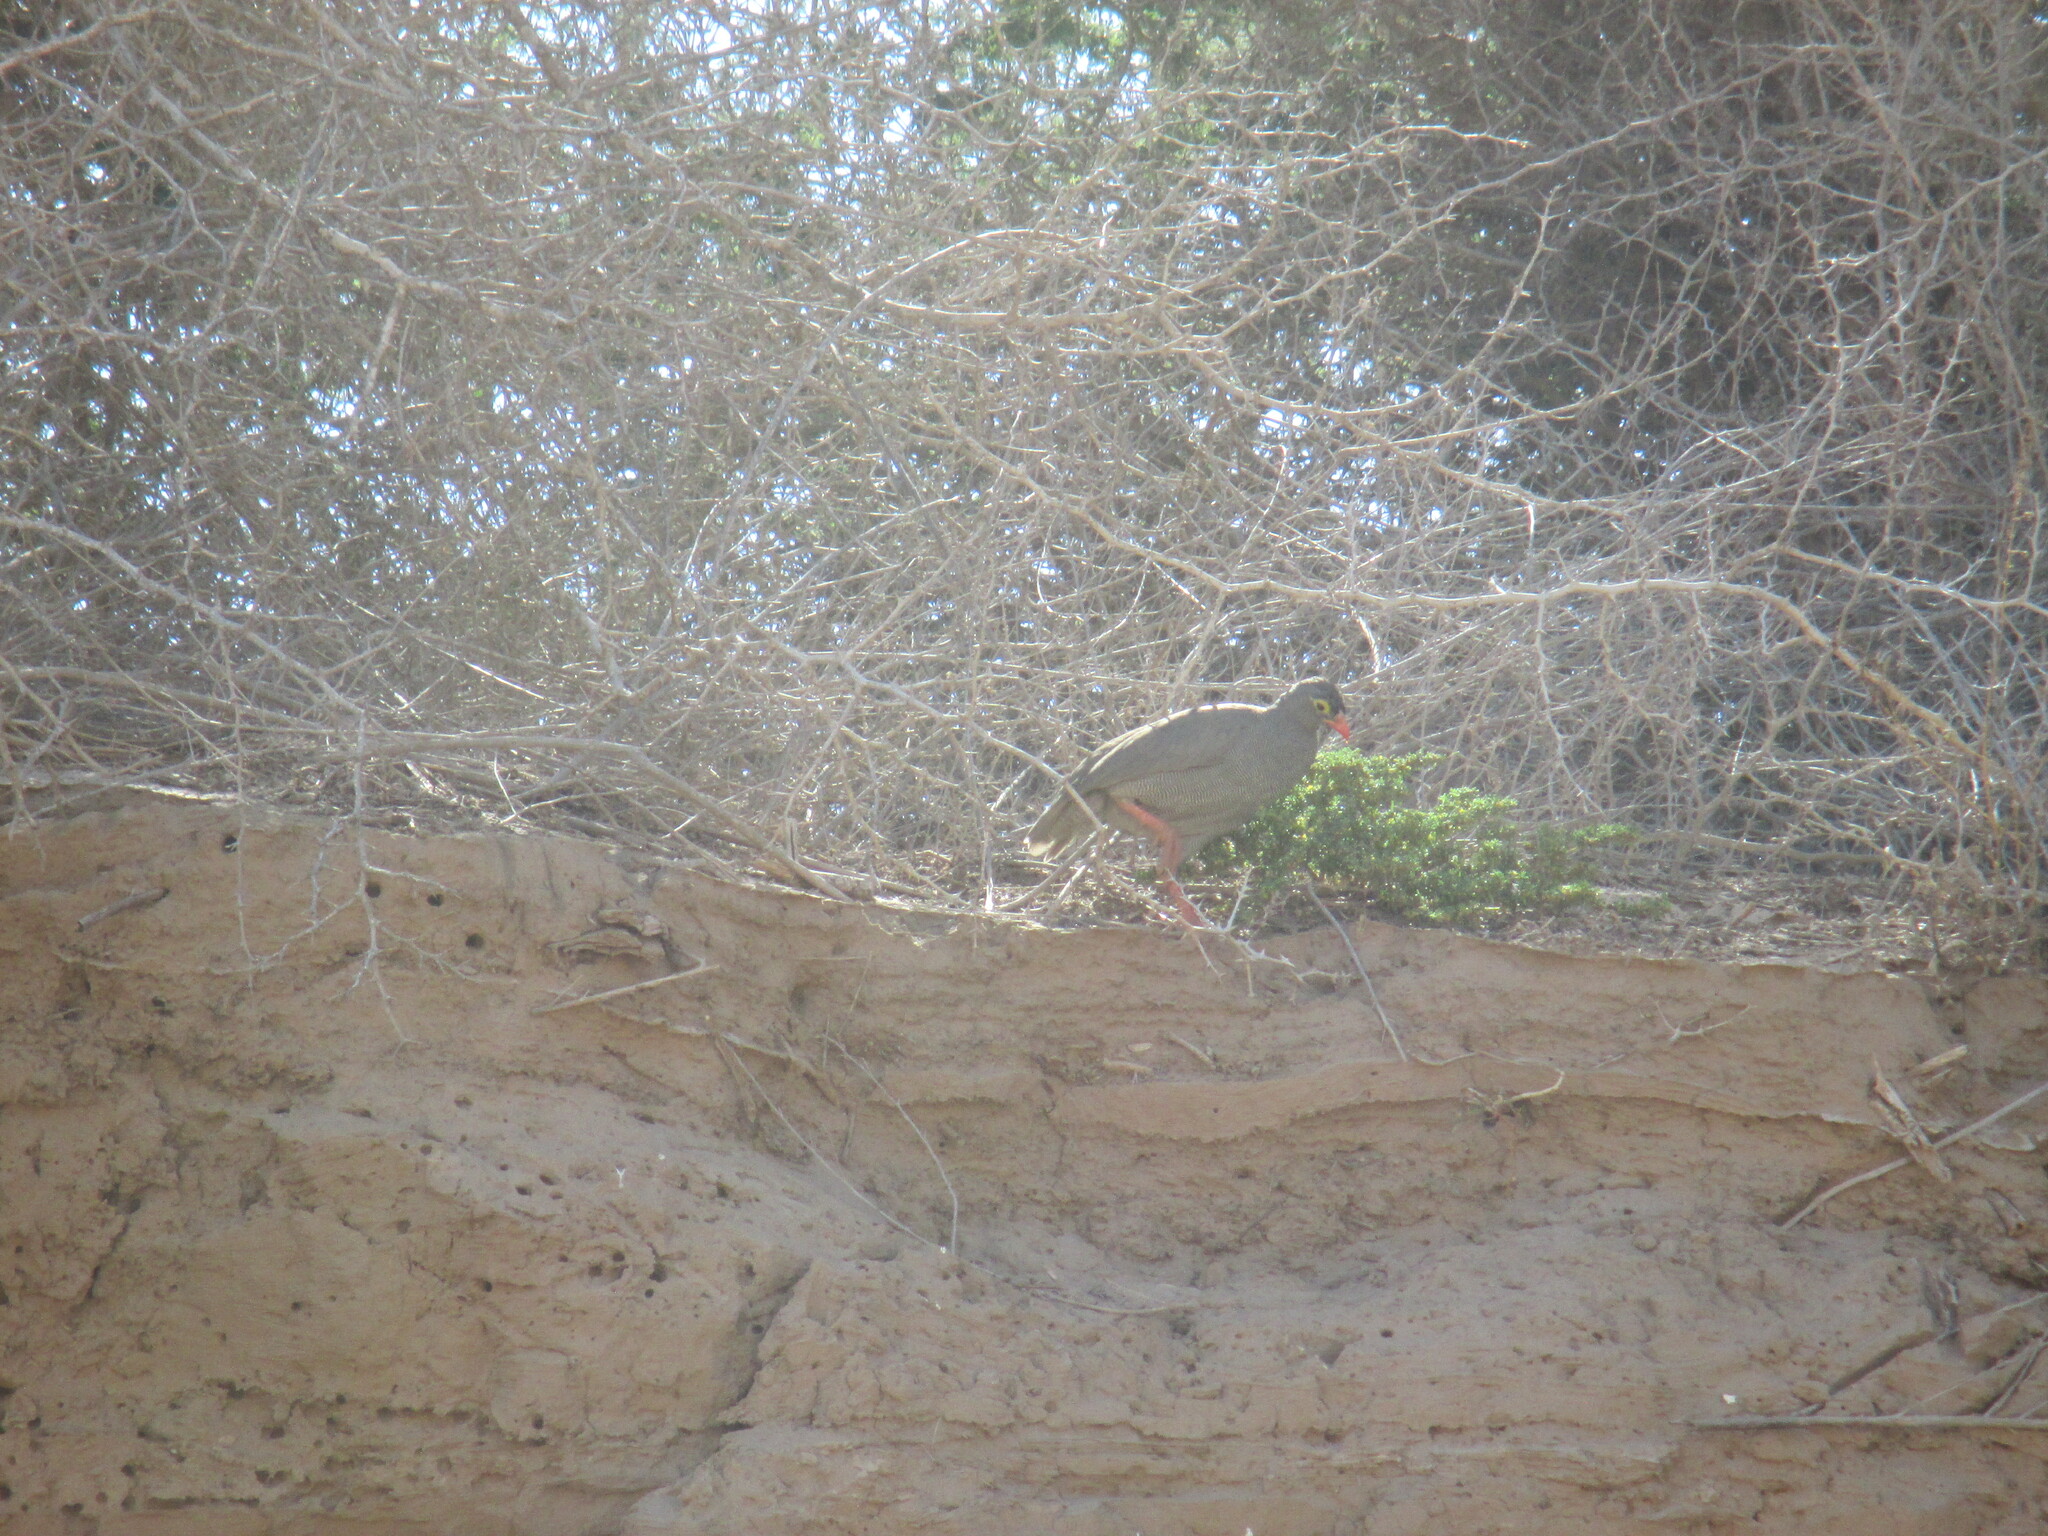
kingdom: Animalia
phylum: Chordata
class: Aves
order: Galliformes
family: Phasianidae
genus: Pternistis
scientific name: Pternistis adspersus
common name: Red-billed spurfowl
